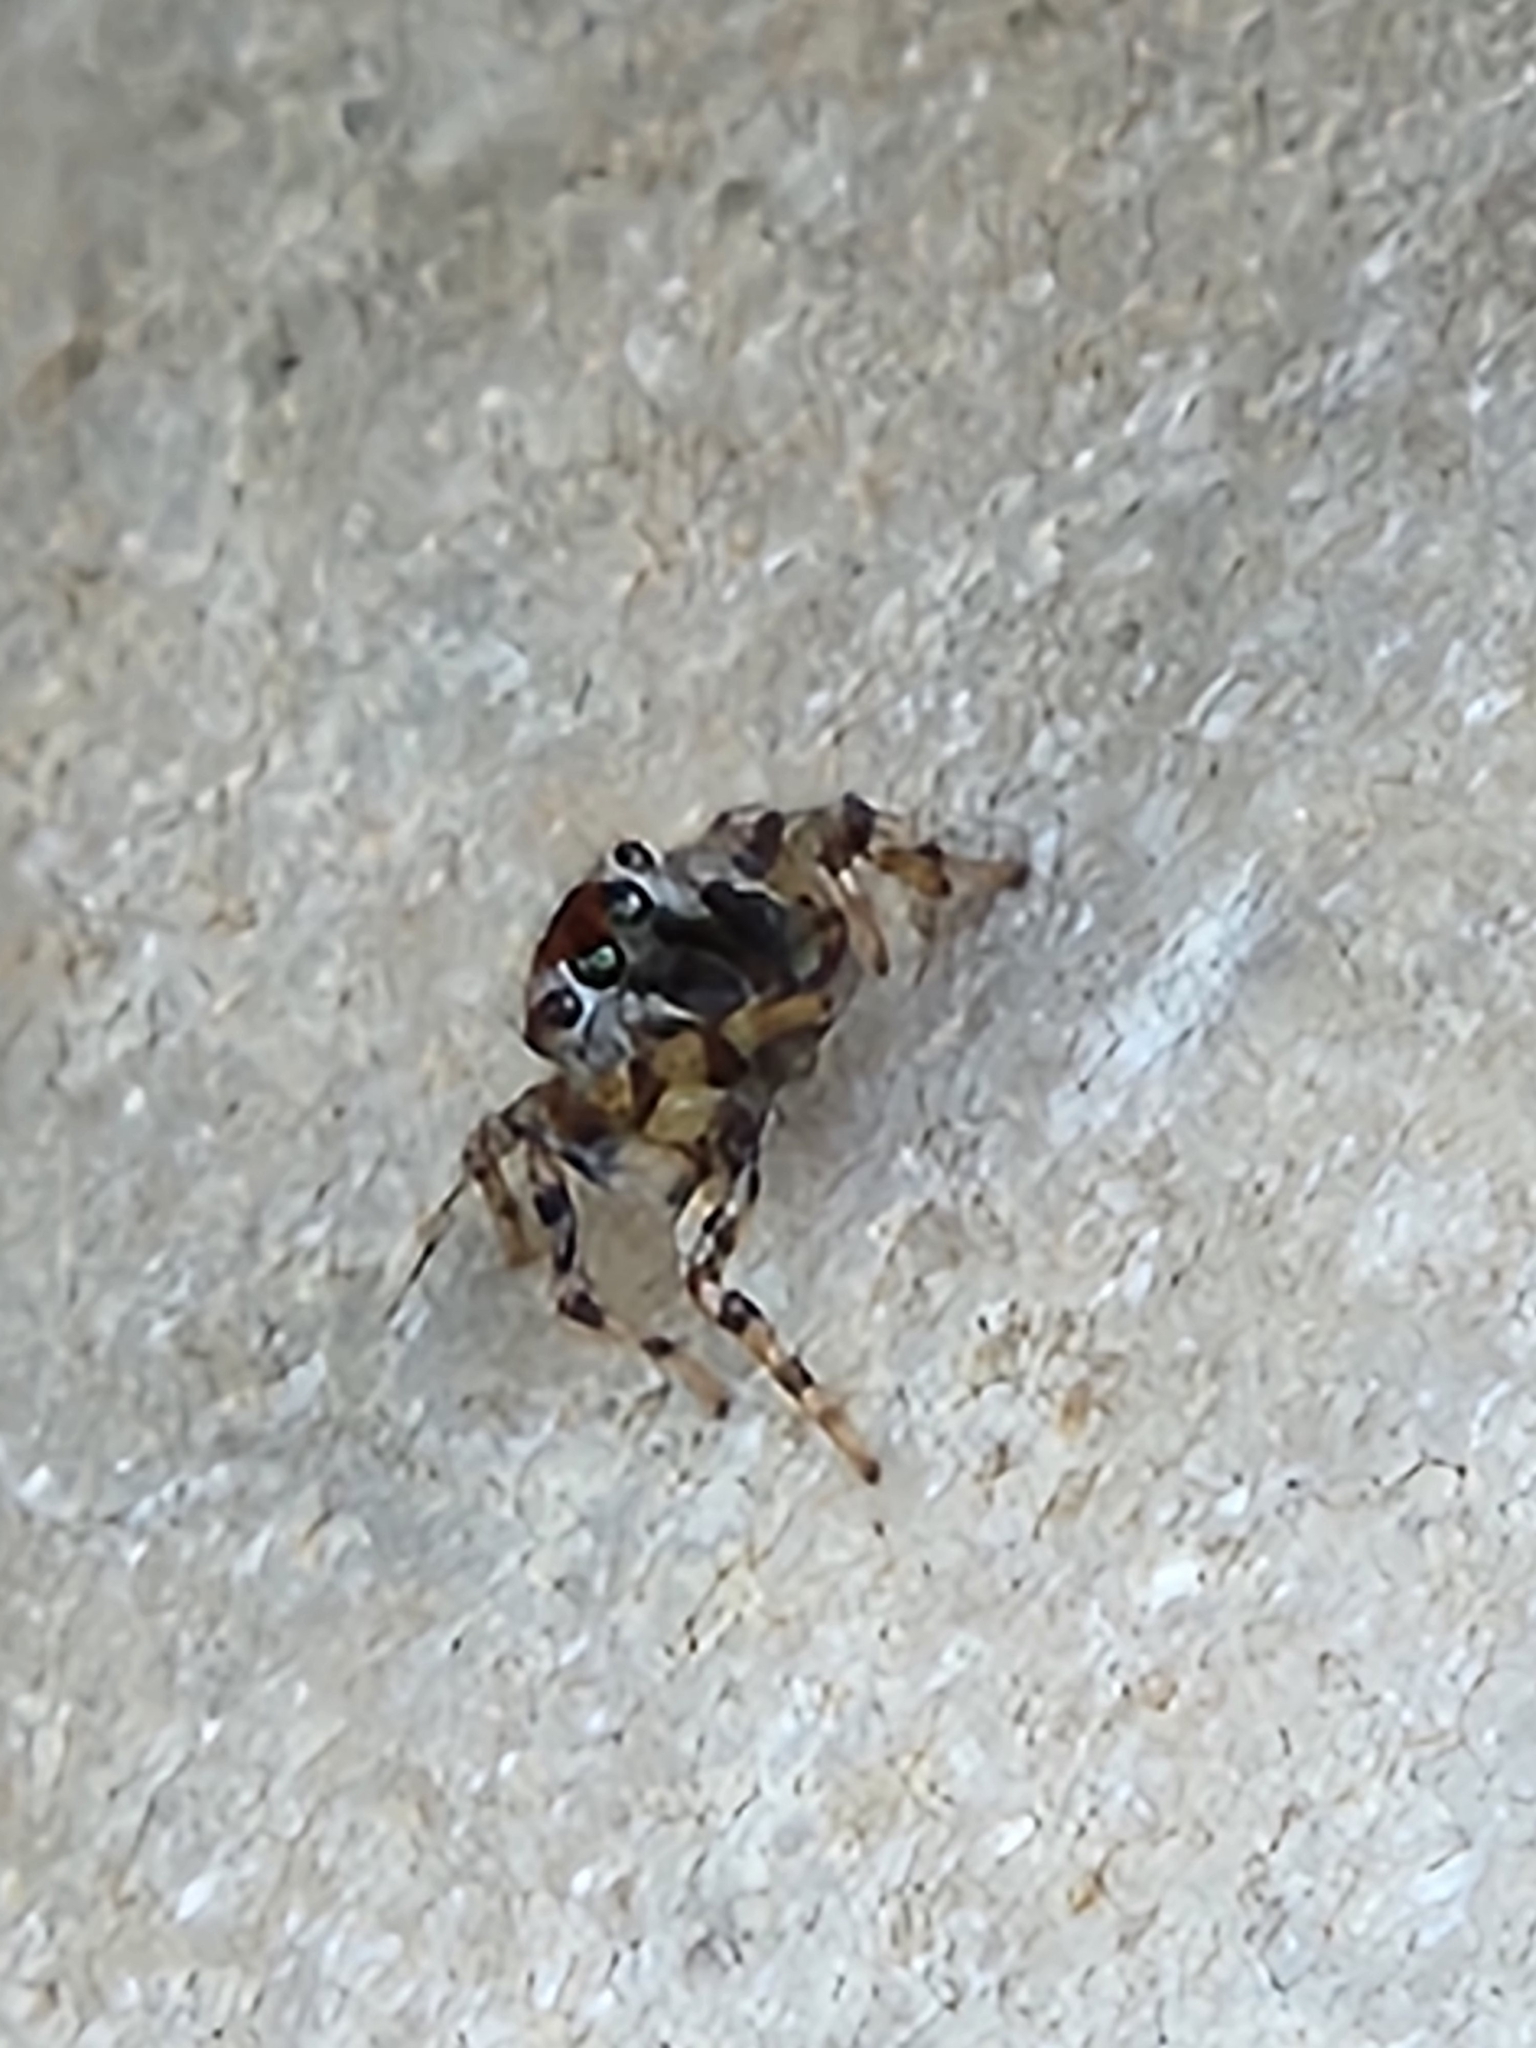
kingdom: Animalia
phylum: Arthropoda
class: Arachnida
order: Araneae
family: Salticidae
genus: Naphrys
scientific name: Naphrys acerba
